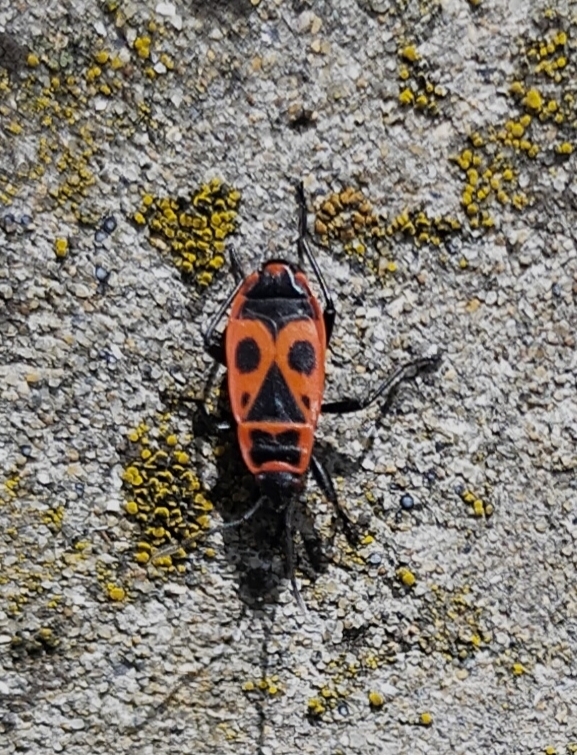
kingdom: Animalia
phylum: Arthropoda
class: Insecta
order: Hemiptera
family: Pyrrhocoridae
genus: Pyrrhocoris
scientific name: Pyrrhocoris apterus
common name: Firebug
